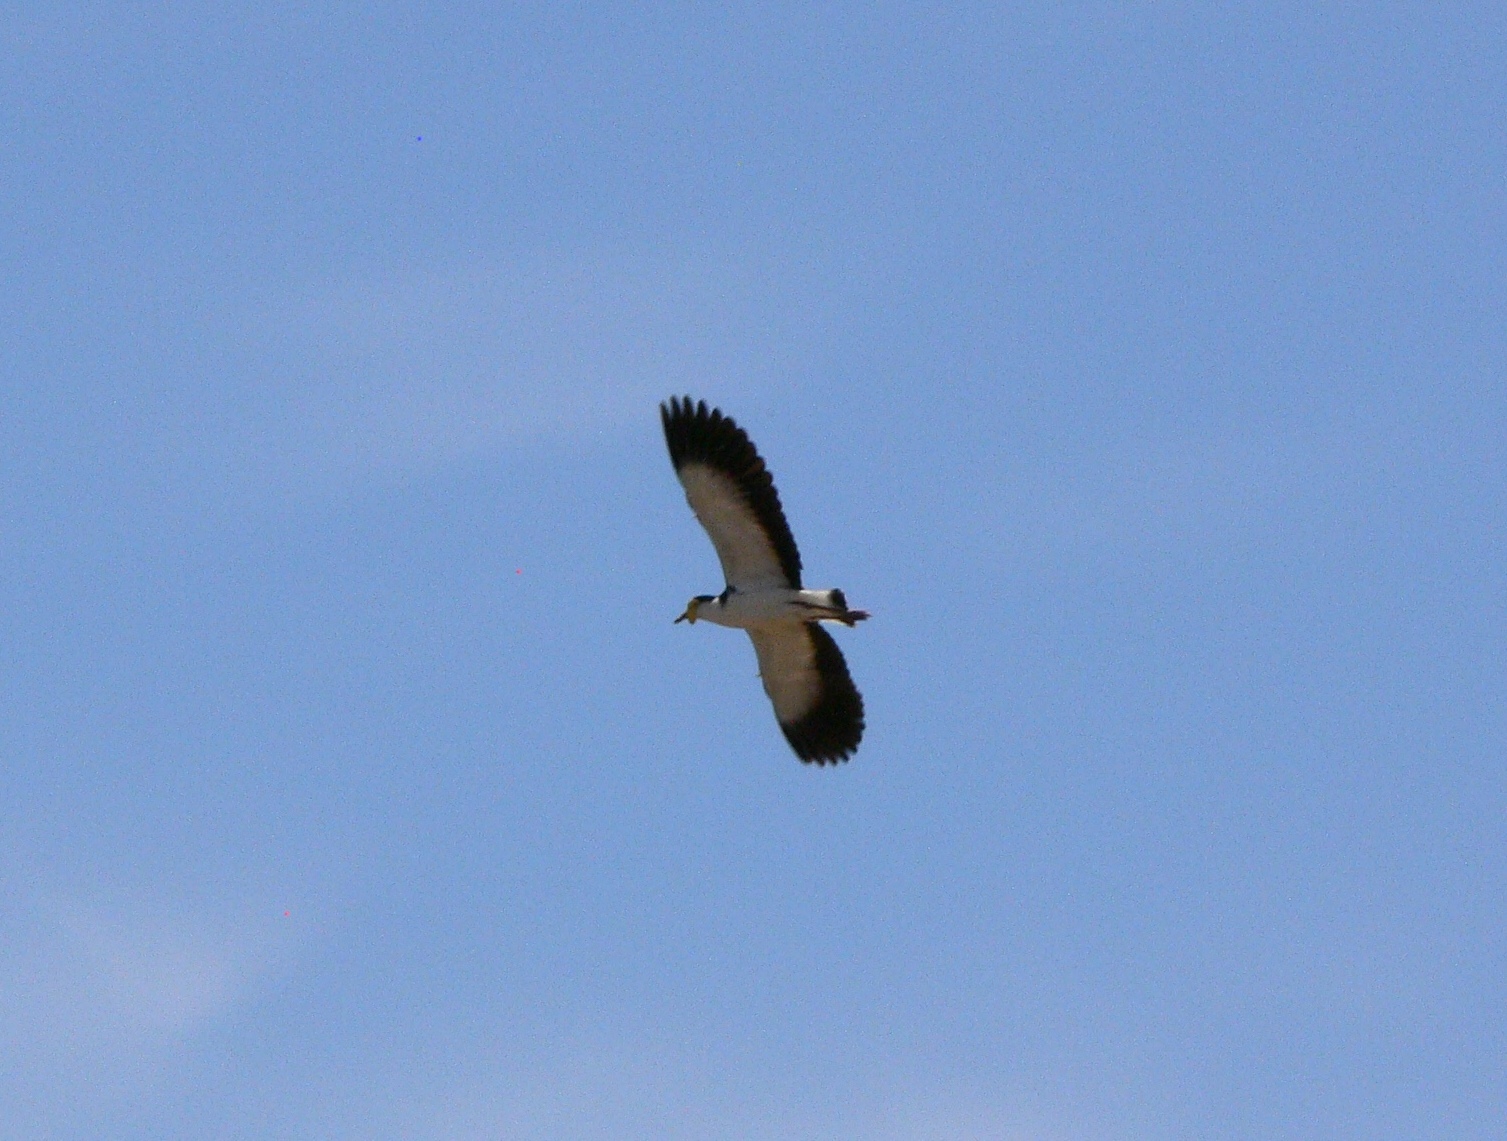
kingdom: Animalia
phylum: Chordata
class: Aves
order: Charadriiformes
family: Charadriidae
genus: Vanellus
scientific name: Vanellus miles
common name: Masked lapwing
